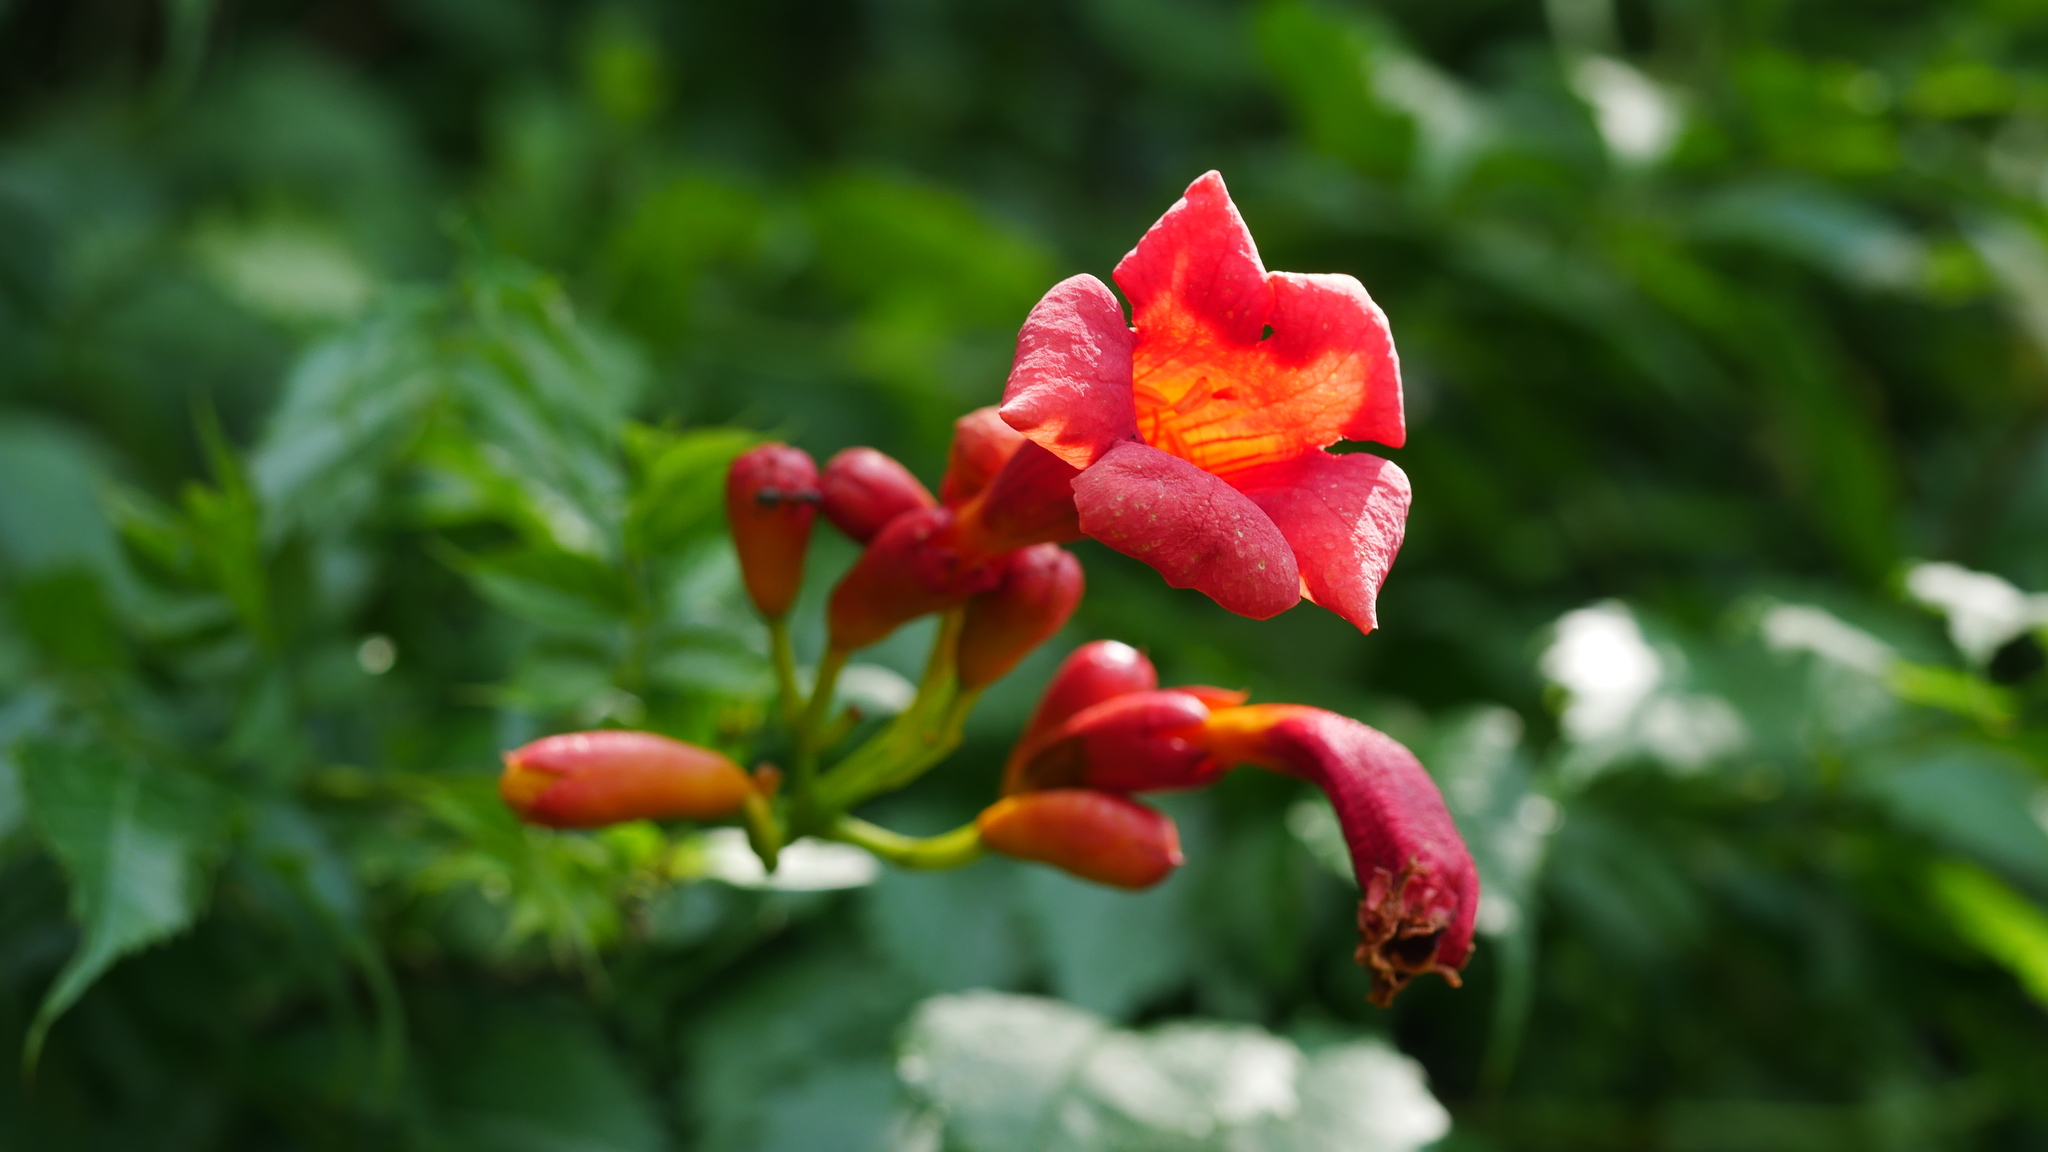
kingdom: Plantae
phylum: Tracheophyta
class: Magnoliopsida
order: Lamiales
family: Bignoniaceae
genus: Campsis
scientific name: Campsis radicans
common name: Trumpet-creeper
